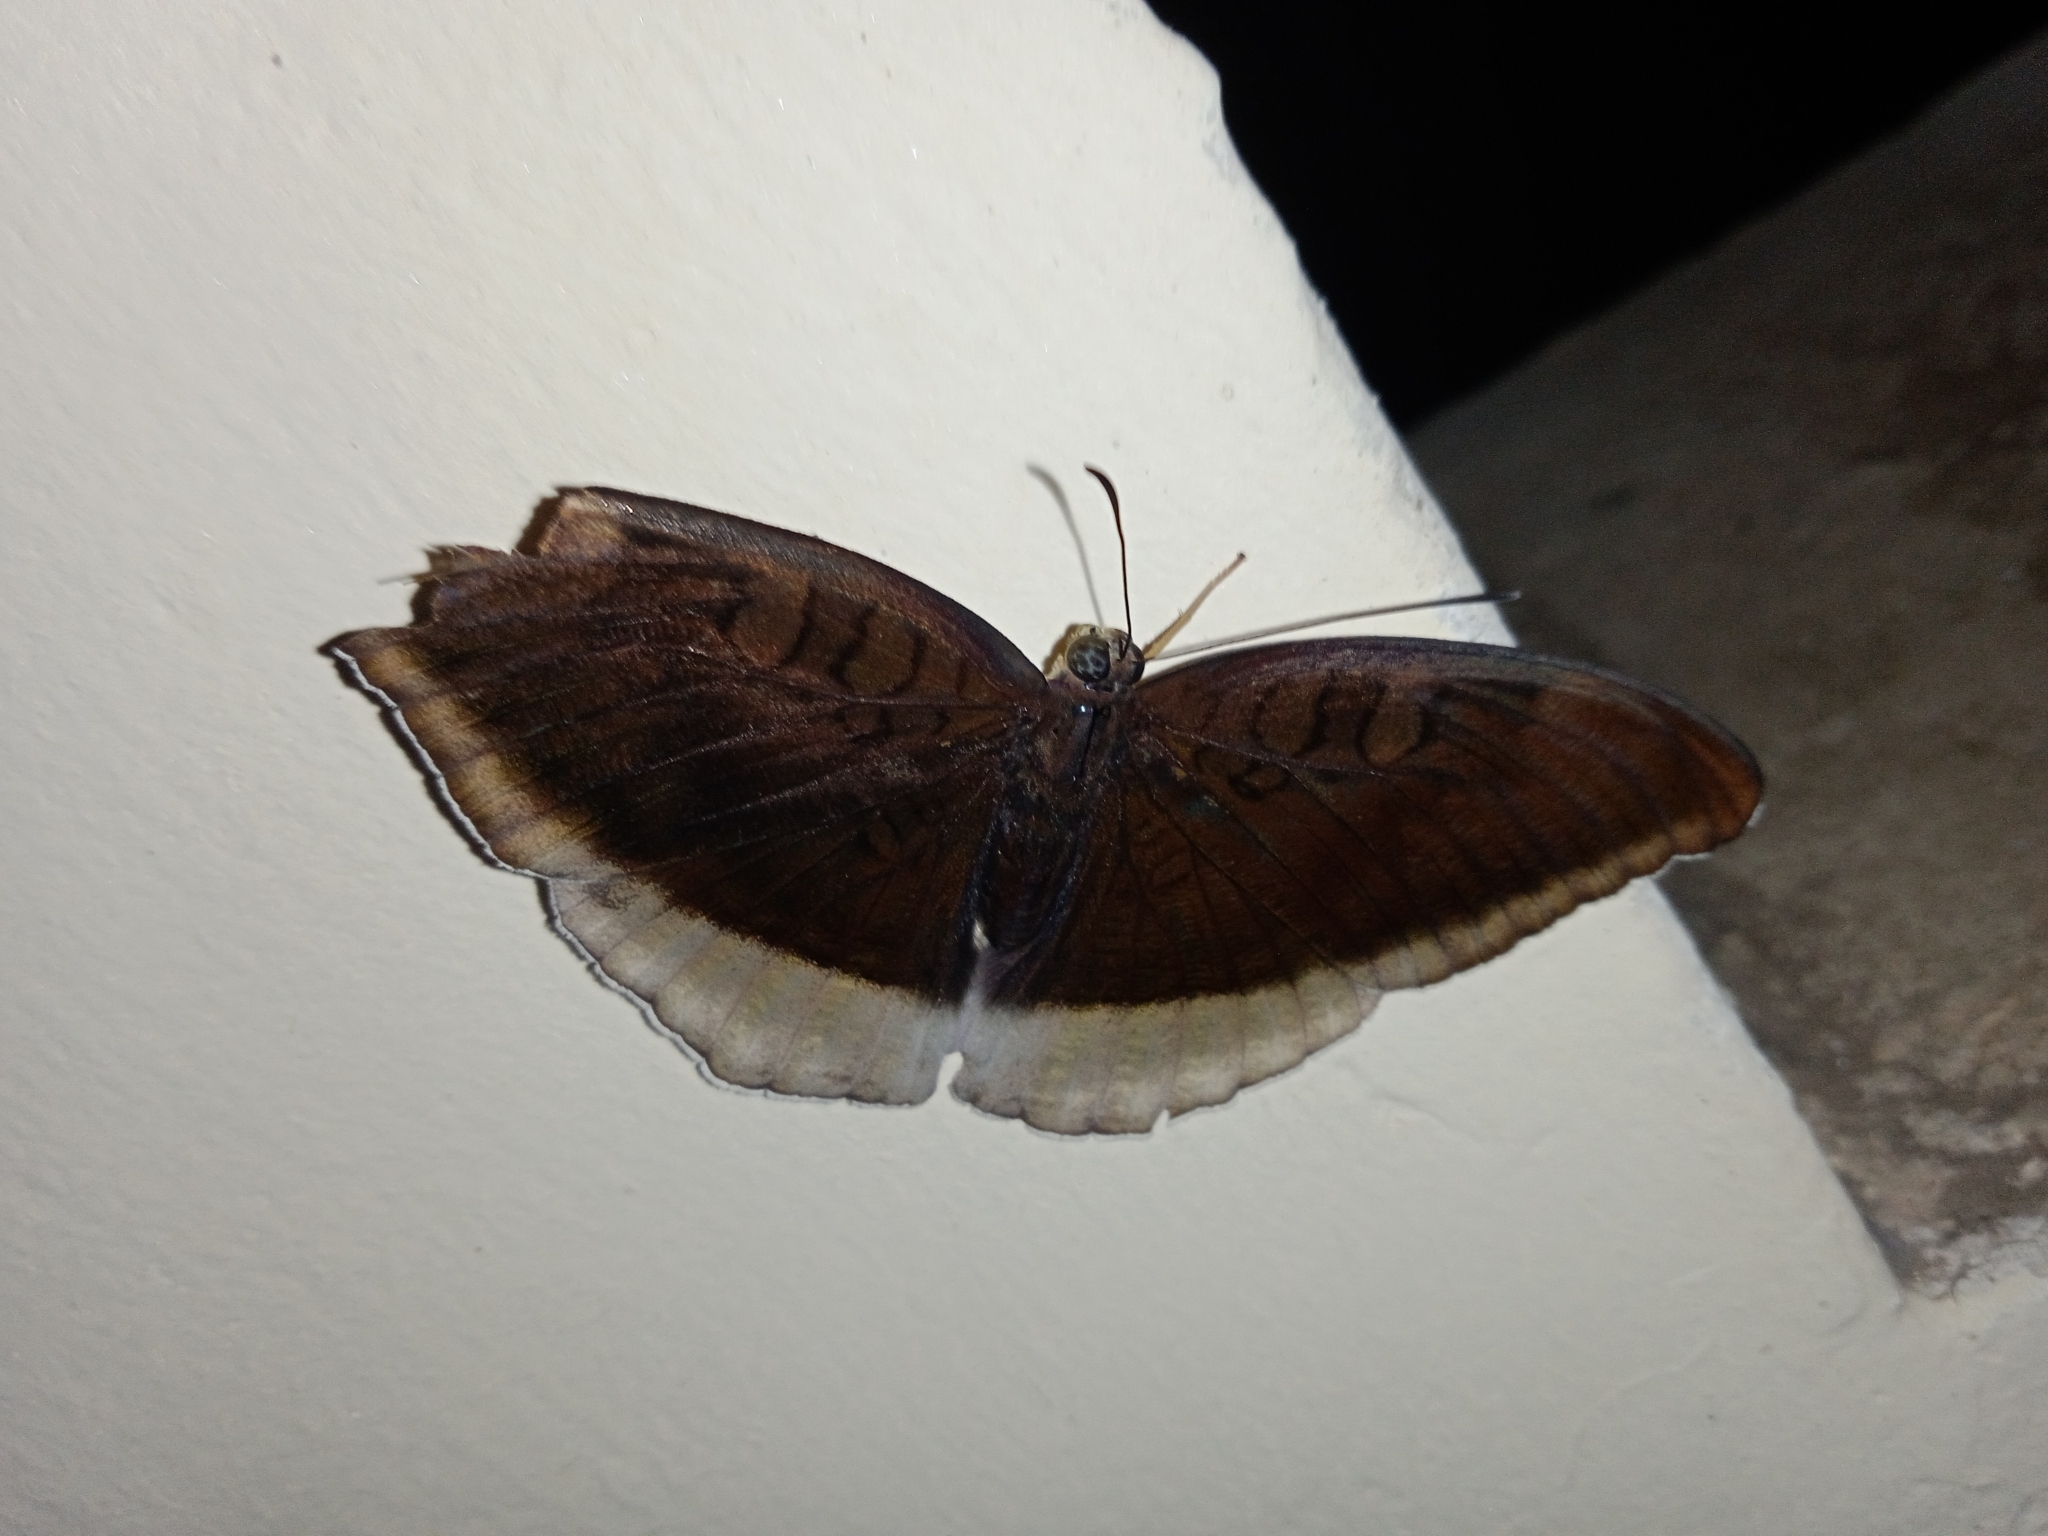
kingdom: Animalia
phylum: Arthropoda
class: Insecta
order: Lepidoptera
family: Nymphalidae
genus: Tanaecia
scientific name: Tanaecia lepidea
